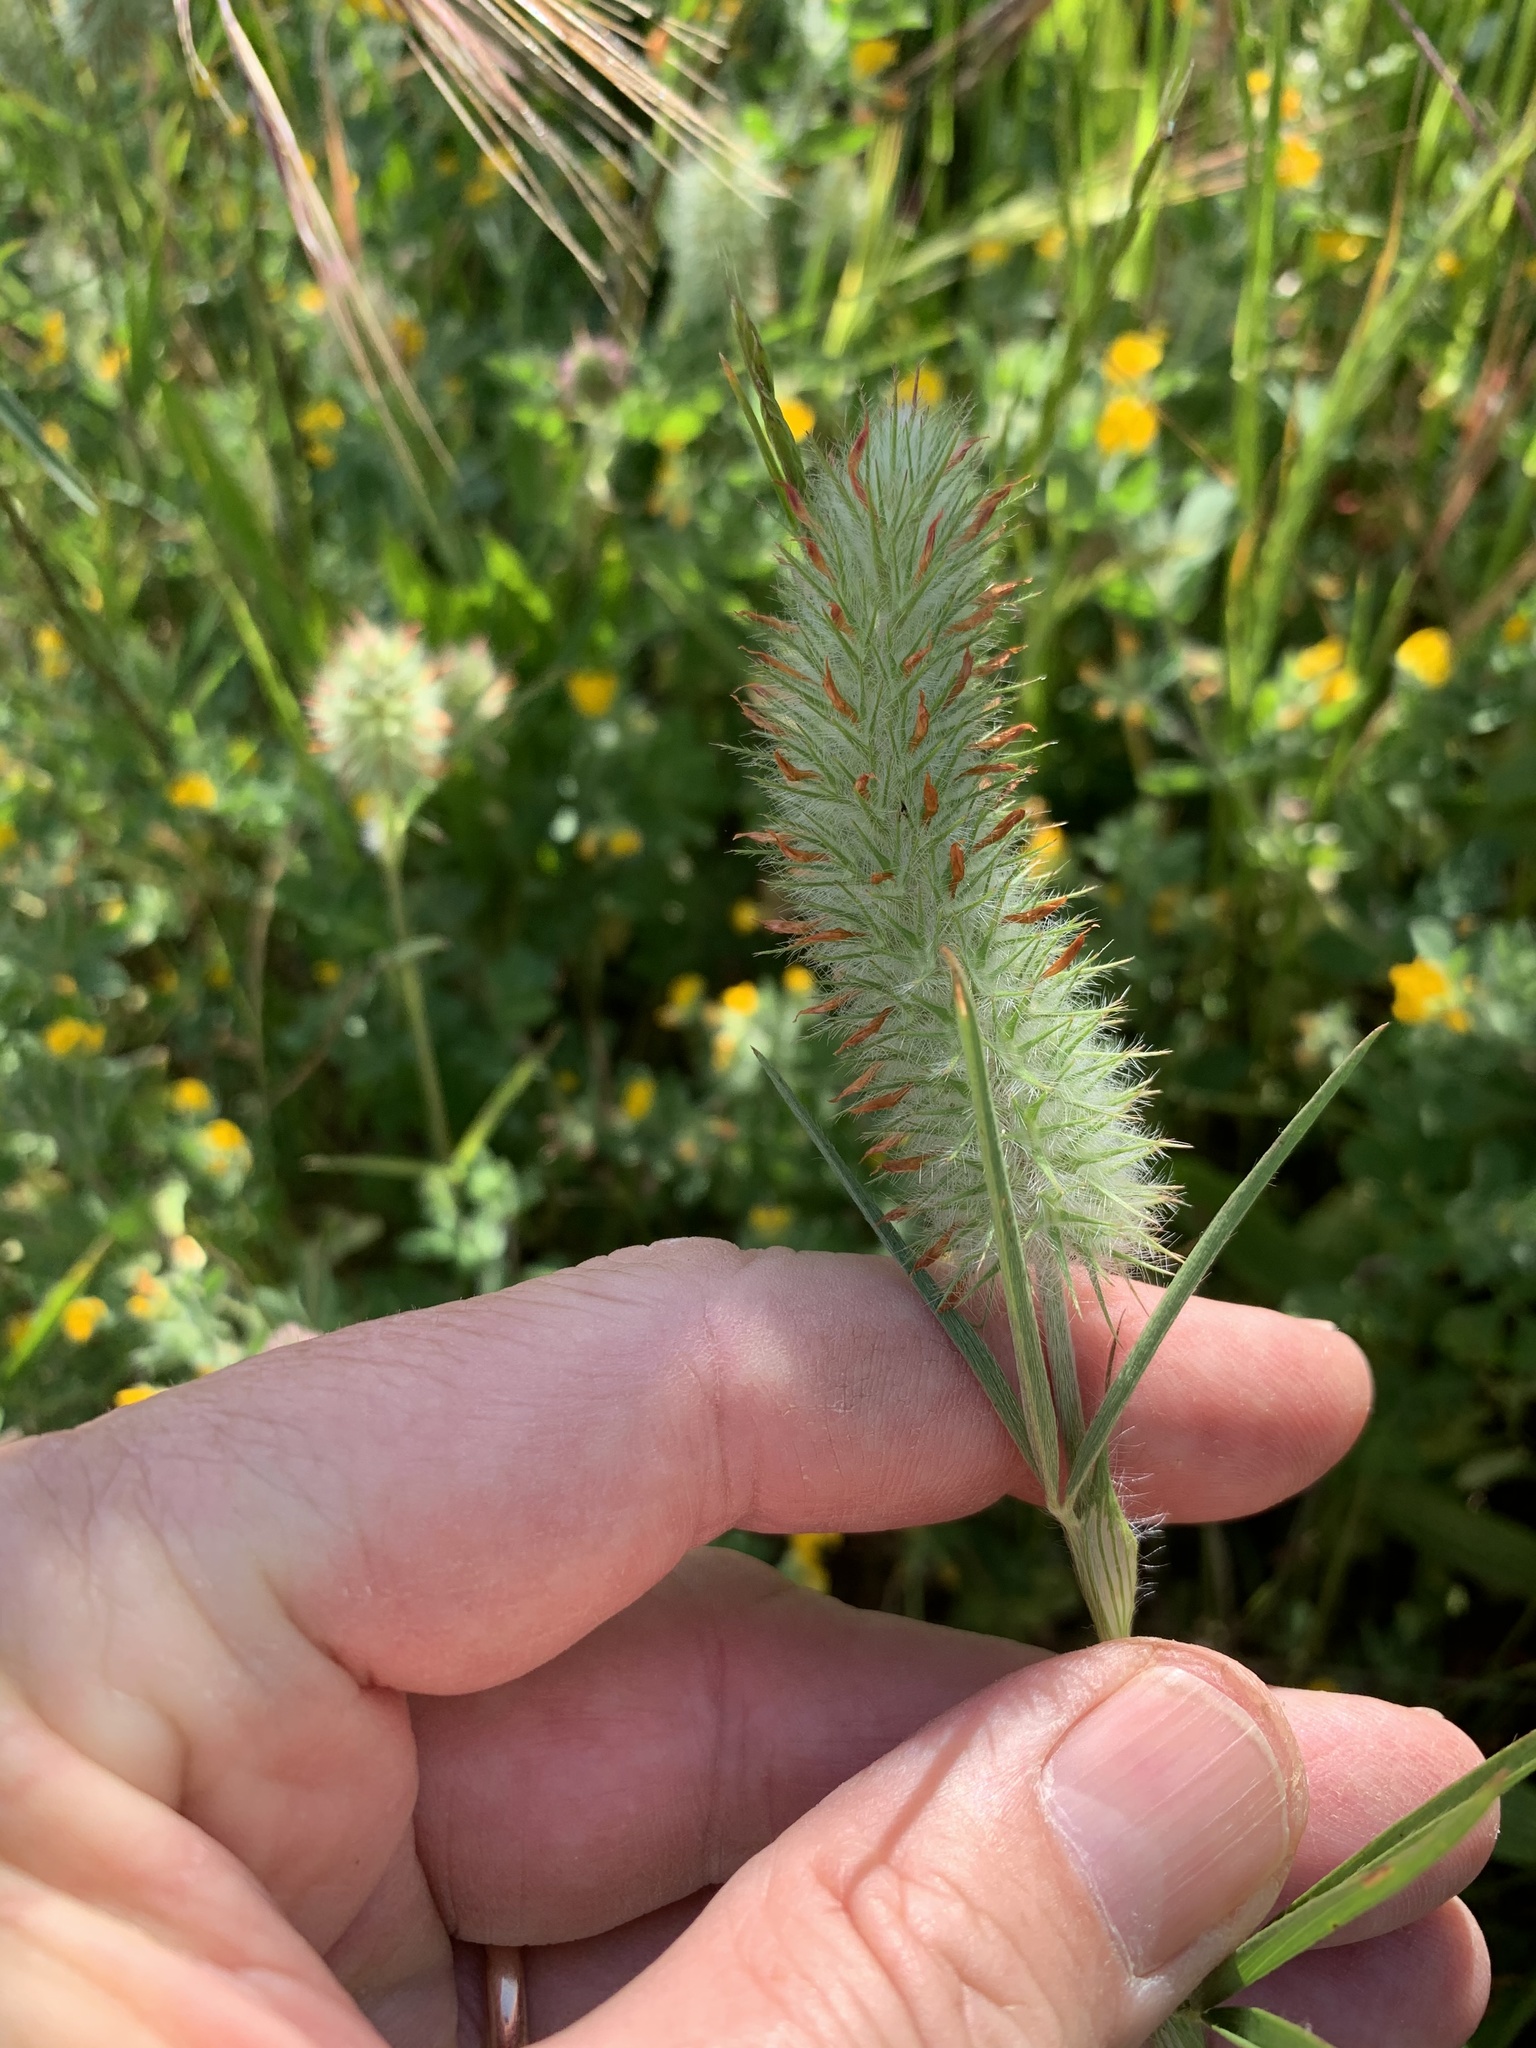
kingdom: Plantae
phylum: Tracheophyta
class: Magnoliopsida
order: Fabales
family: Fabaceae
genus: Trifolium
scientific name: Trifolium angustifolium
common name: Narrow clover
